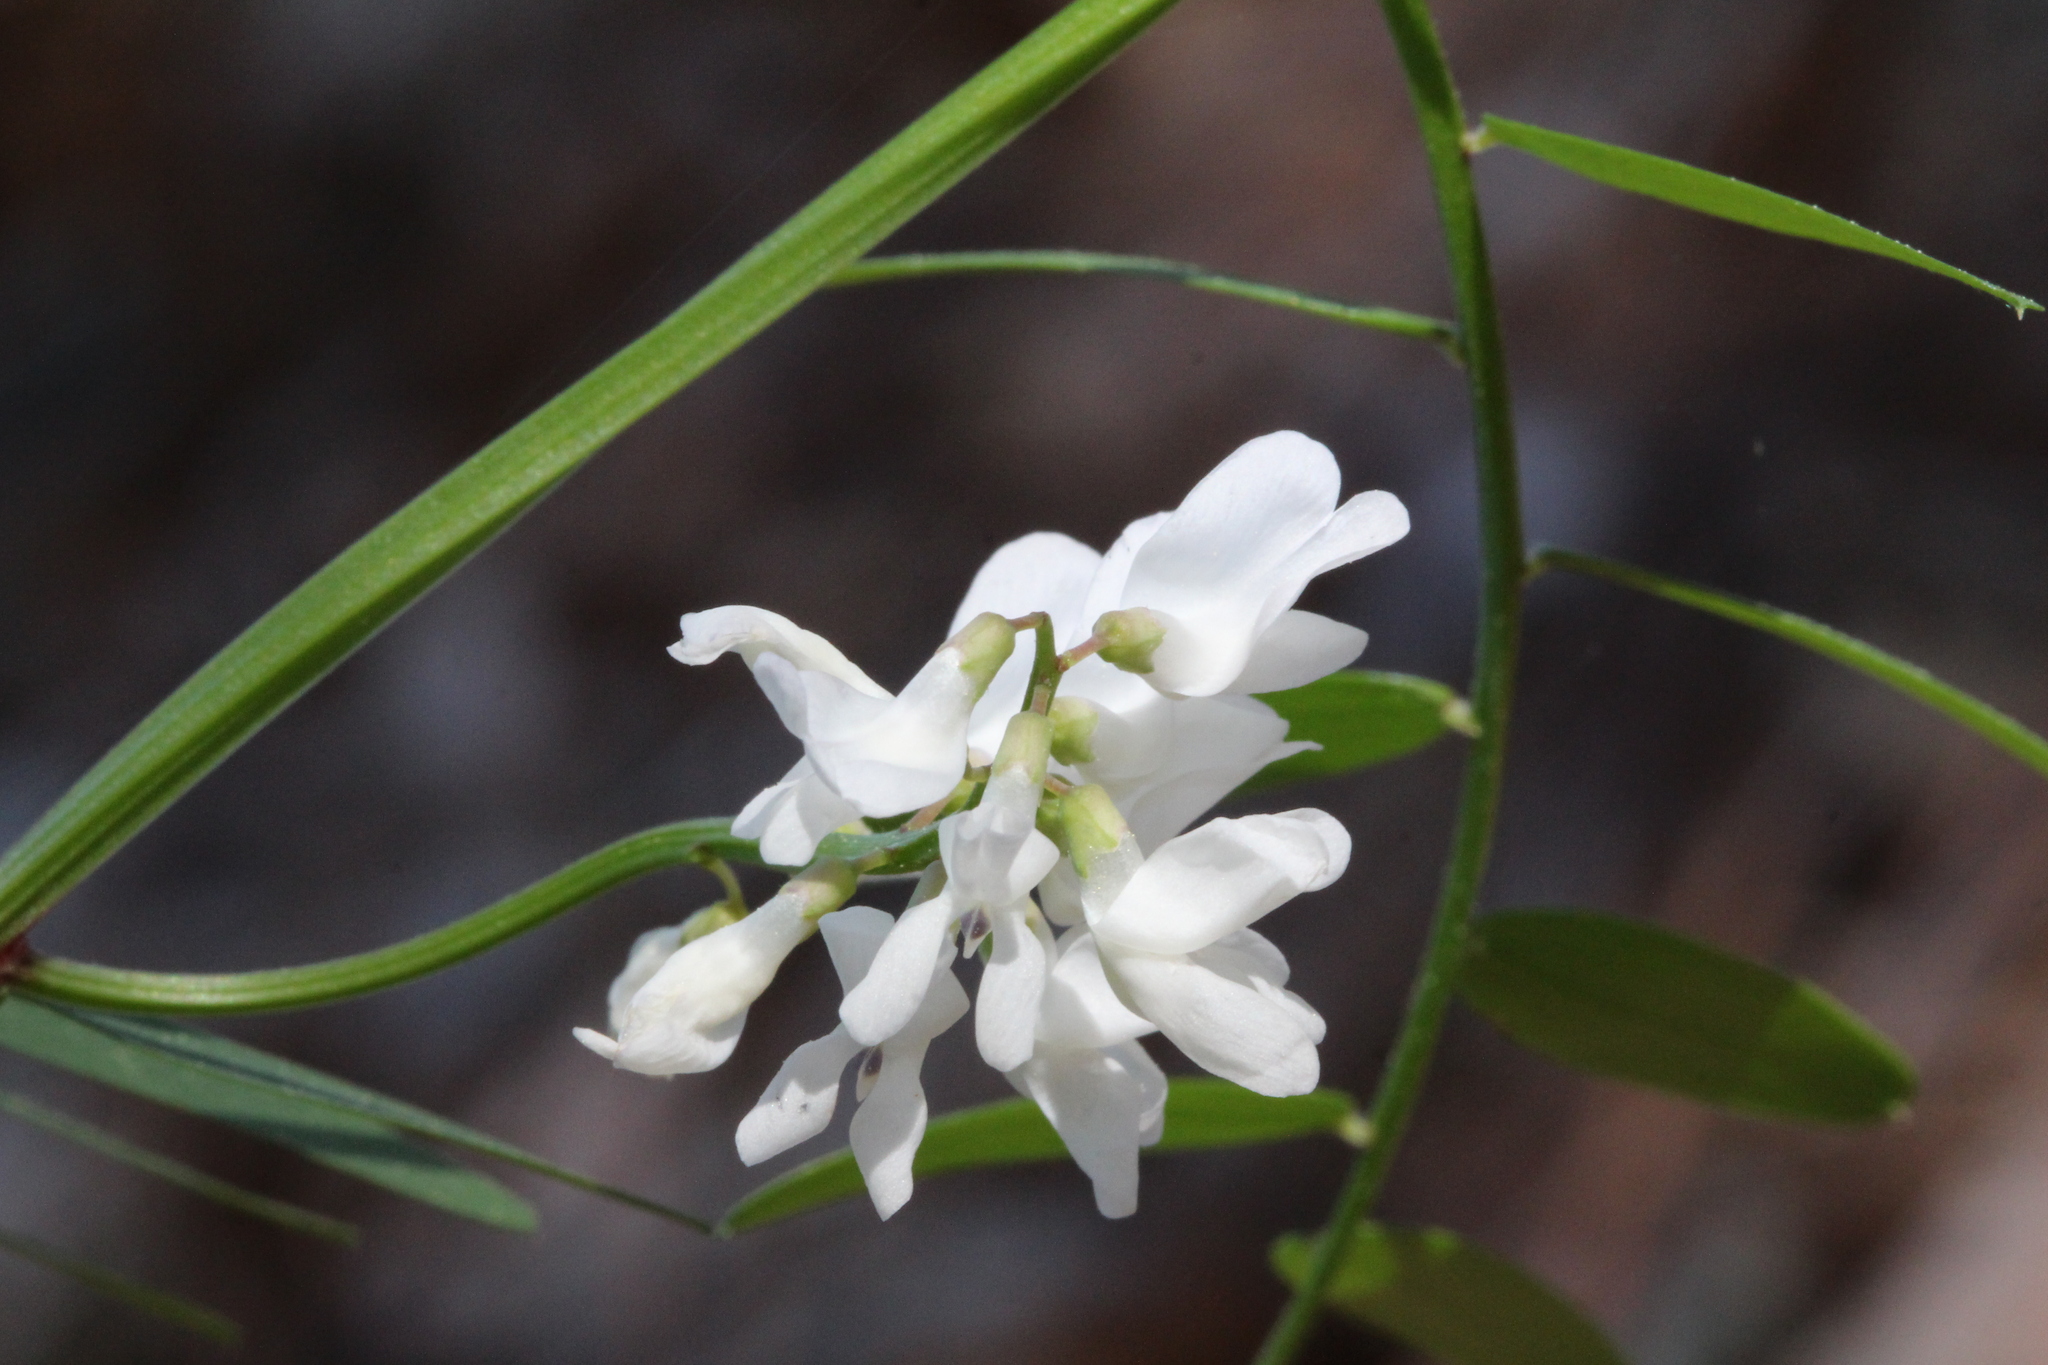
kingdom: Plantae
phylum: Tracheophyta
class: Magnoliopsida
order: Fabales
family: Fabaceae
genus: Vicia
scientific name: Vicia caroliniana
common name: Carolina vetch
